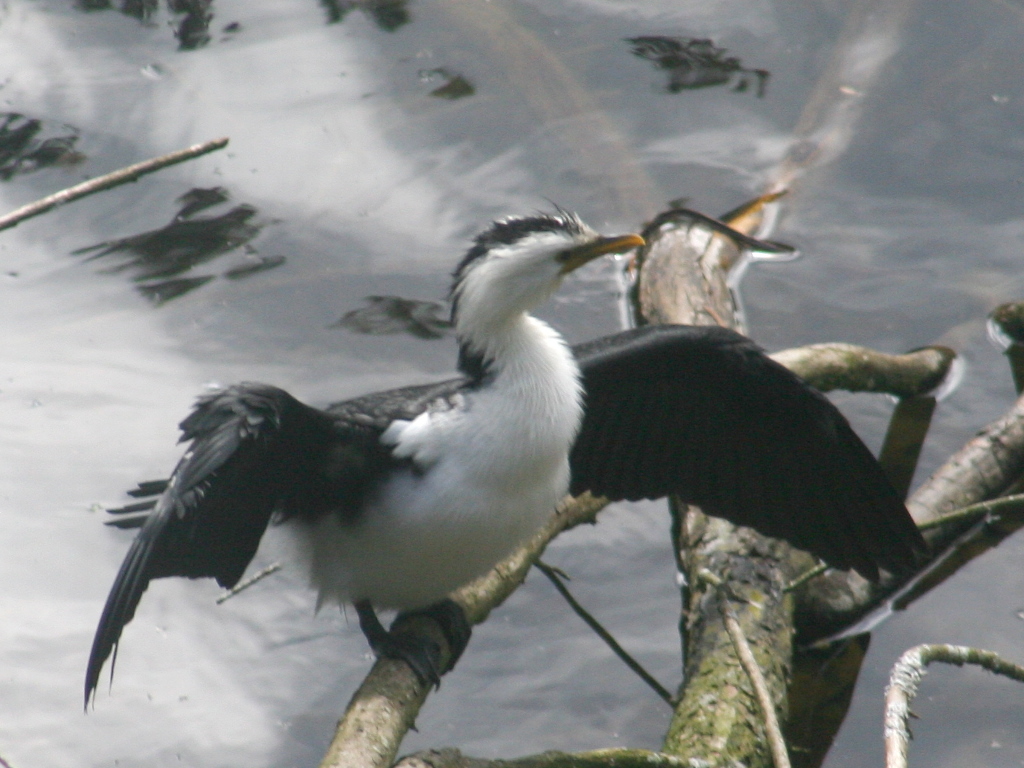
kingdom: Animalia
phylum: Chordata
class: Aves
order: Suliformes
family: Phalacrocoracidae
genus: Microcarbo
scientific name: Microcarbo melanoleucos
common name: Little pied cormorant
